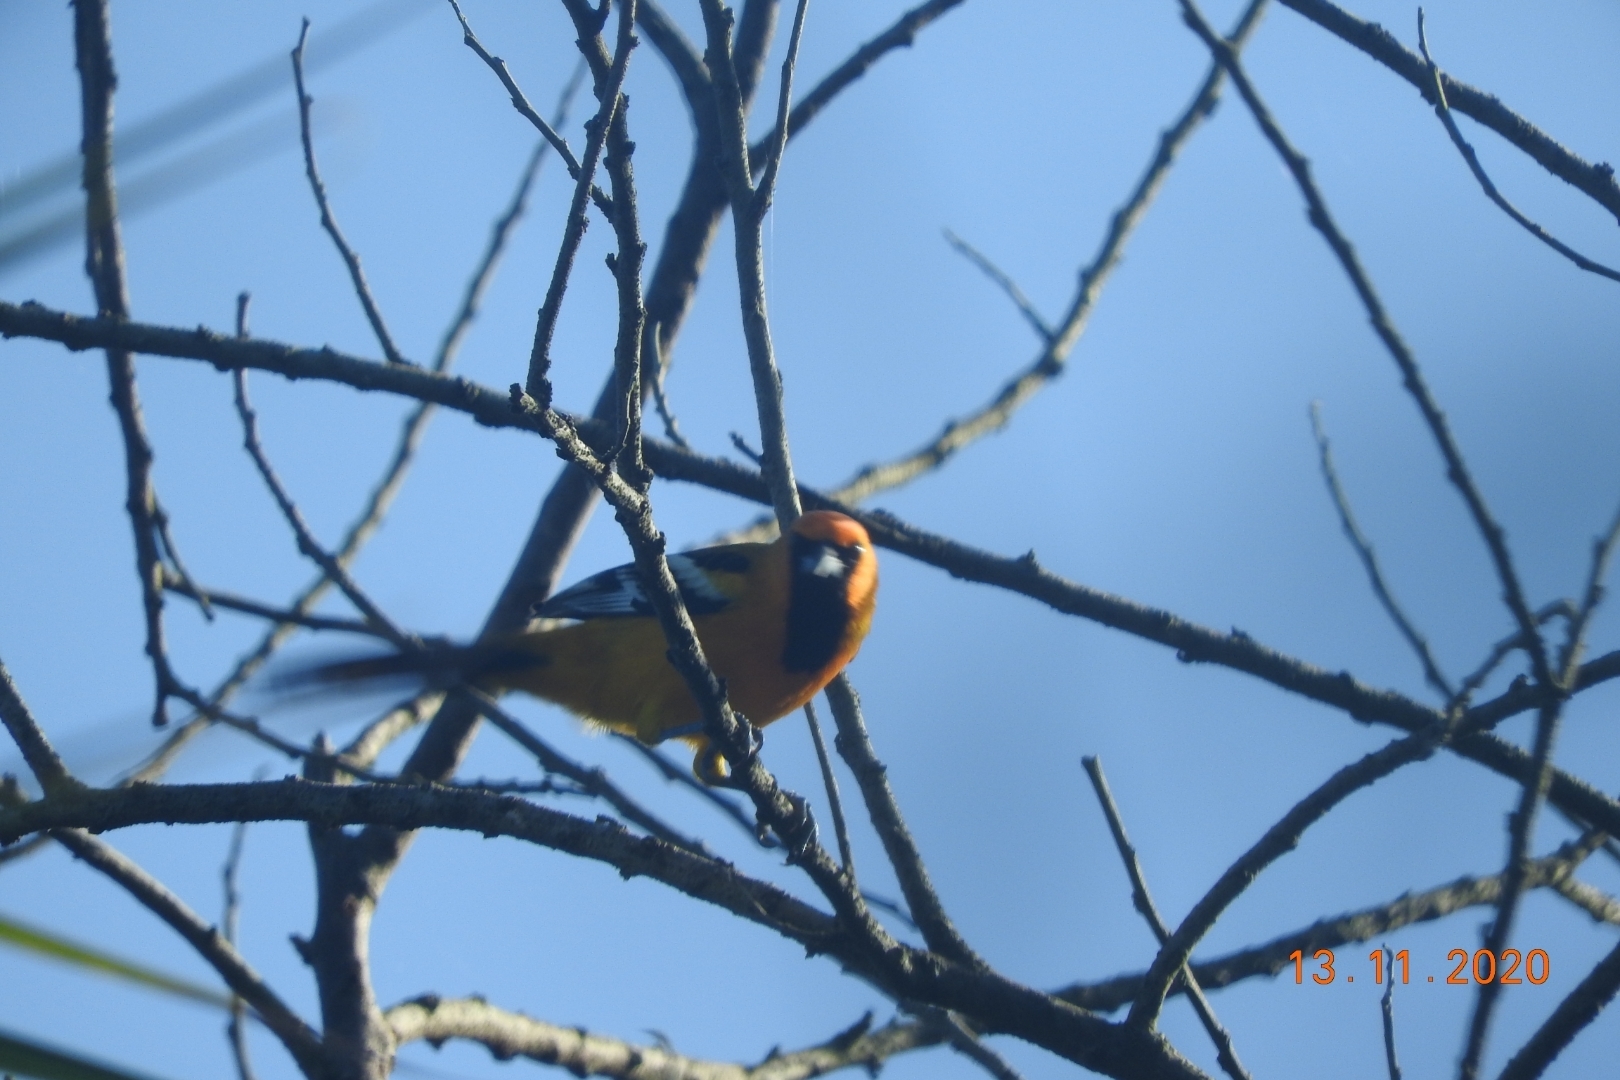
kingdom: Animalia
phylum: Chordata
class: Aves
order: Passeriformes
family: Icteridae
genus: Icterus
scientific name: Icterus gularis
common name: Altamira oriole
